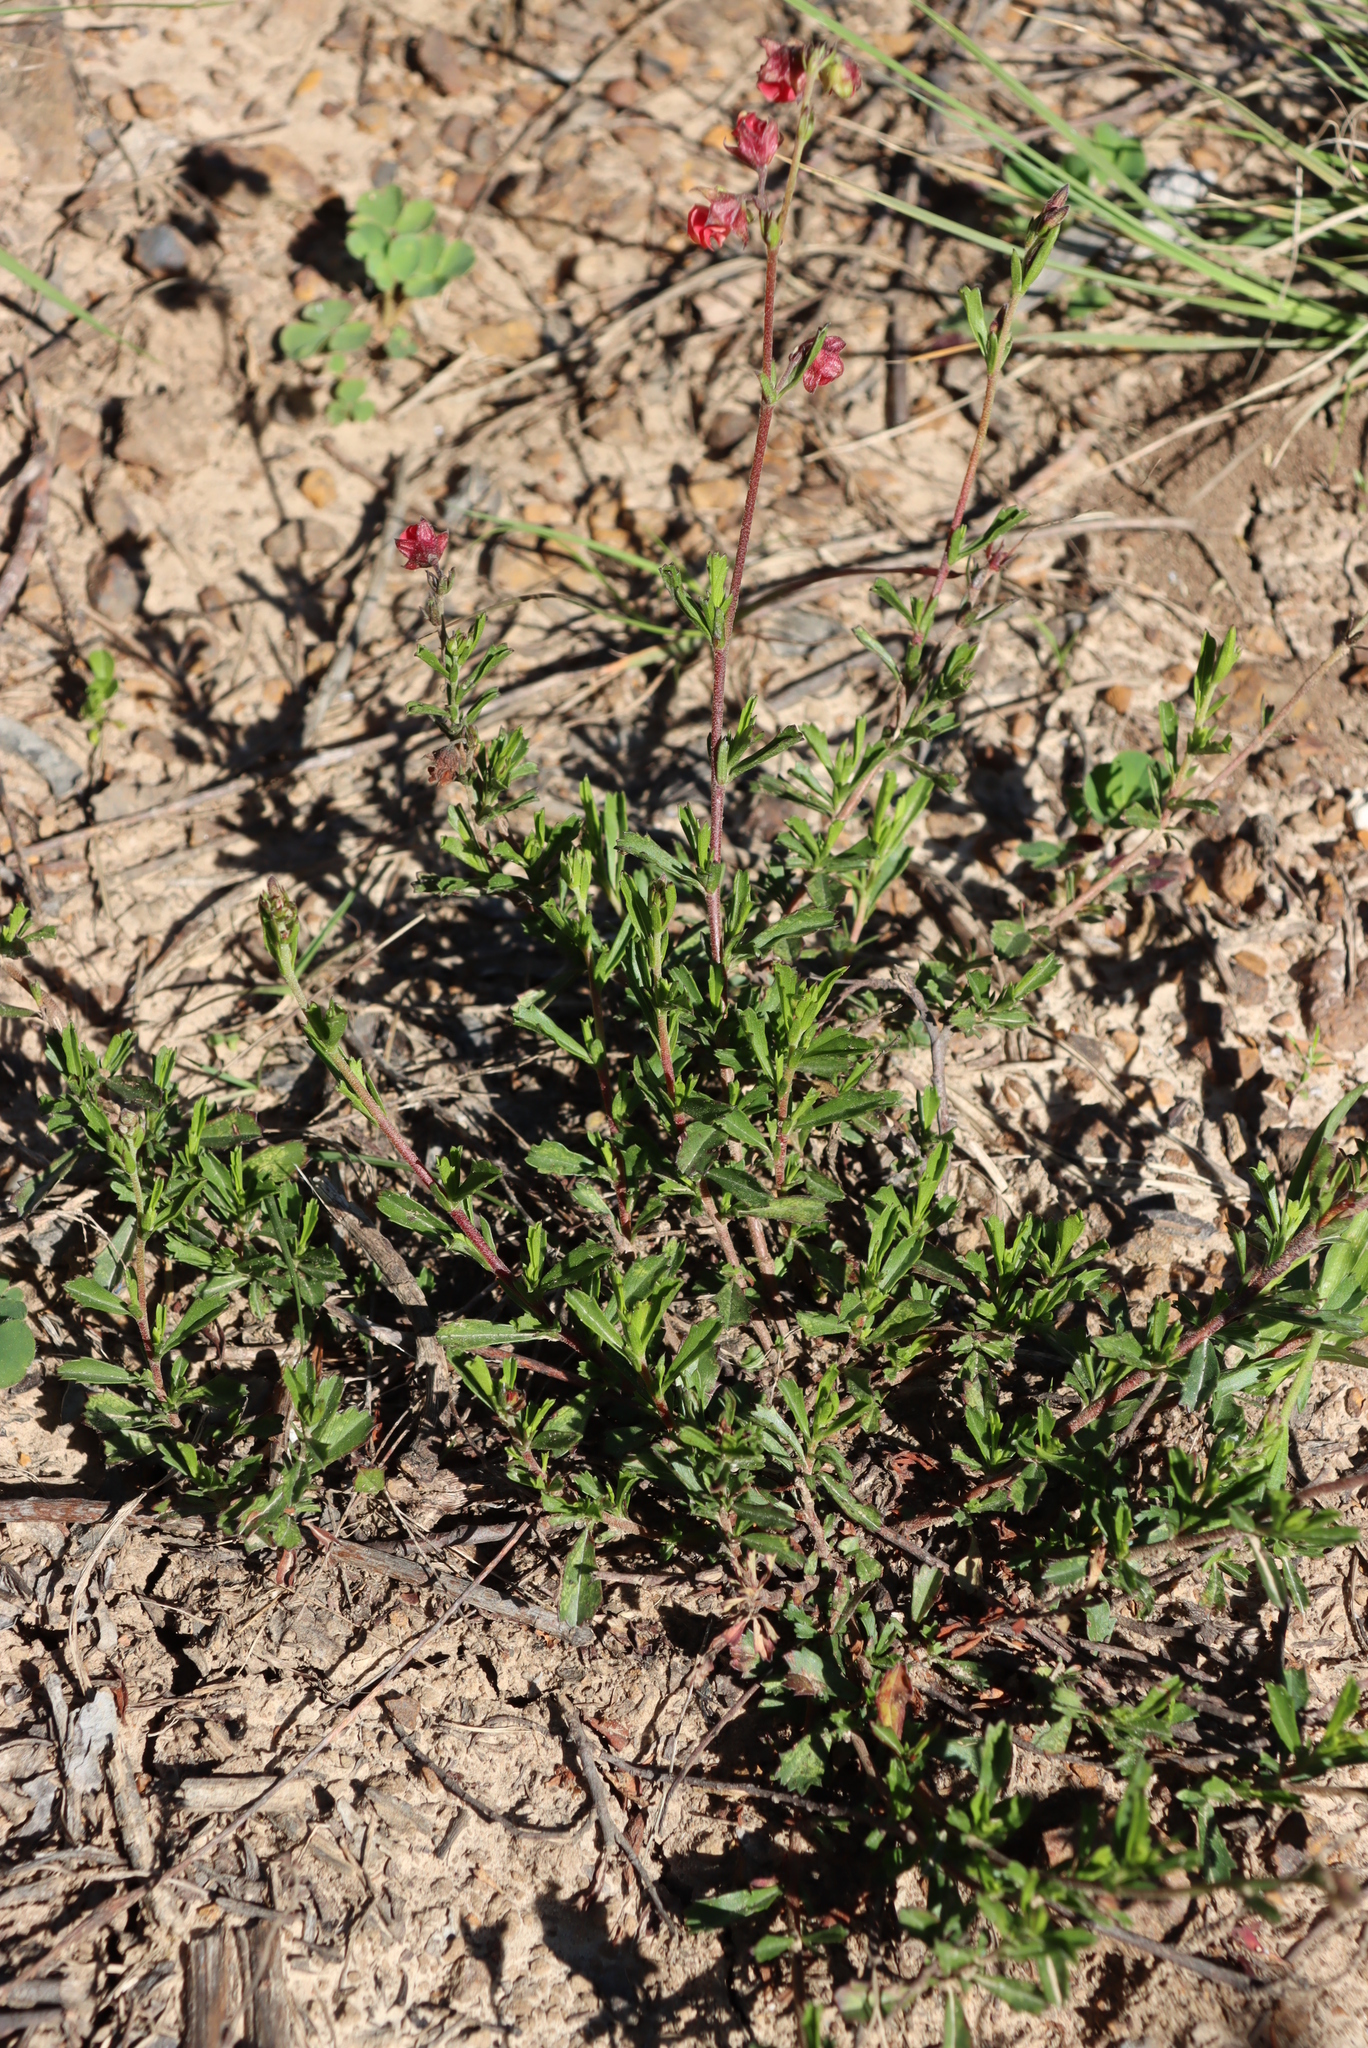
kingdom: Plantae
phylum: Tracheophyta
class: Magnoliopsida
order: Malvales
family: Malvaceae
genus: Hermannia
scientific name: Hermannia flammea
